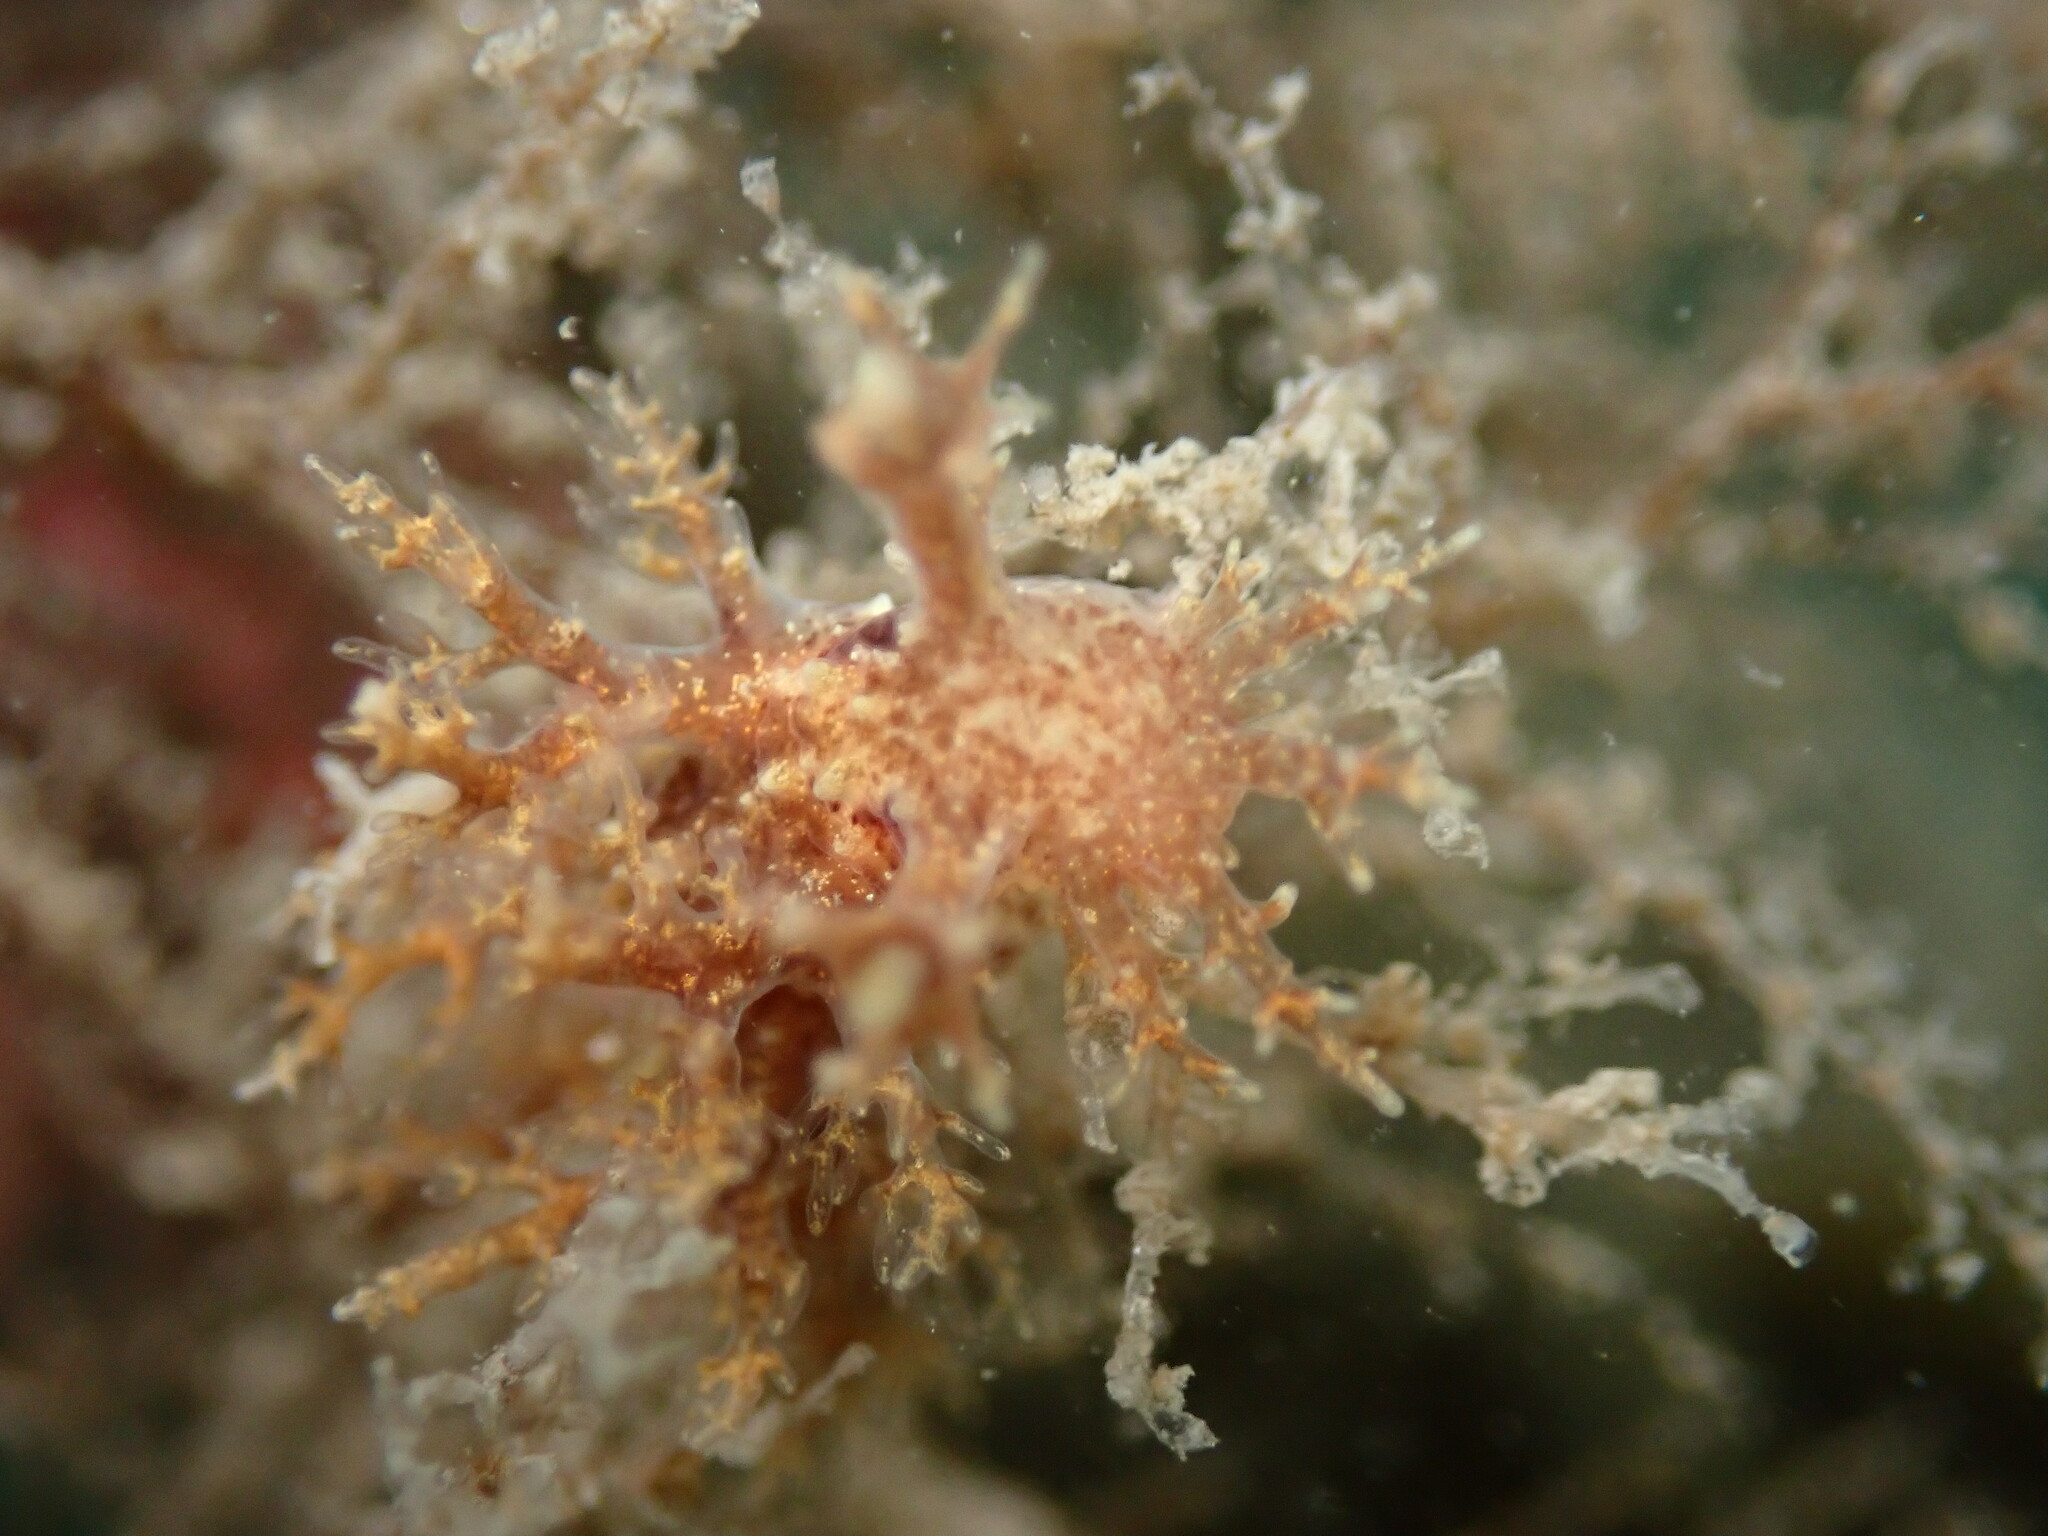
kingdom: Animalia
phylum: Mollusca
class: Gastropoda
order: Nudibranchia
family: Dendronotidae
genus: Dendronotus
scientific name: Dendronotus venustus
